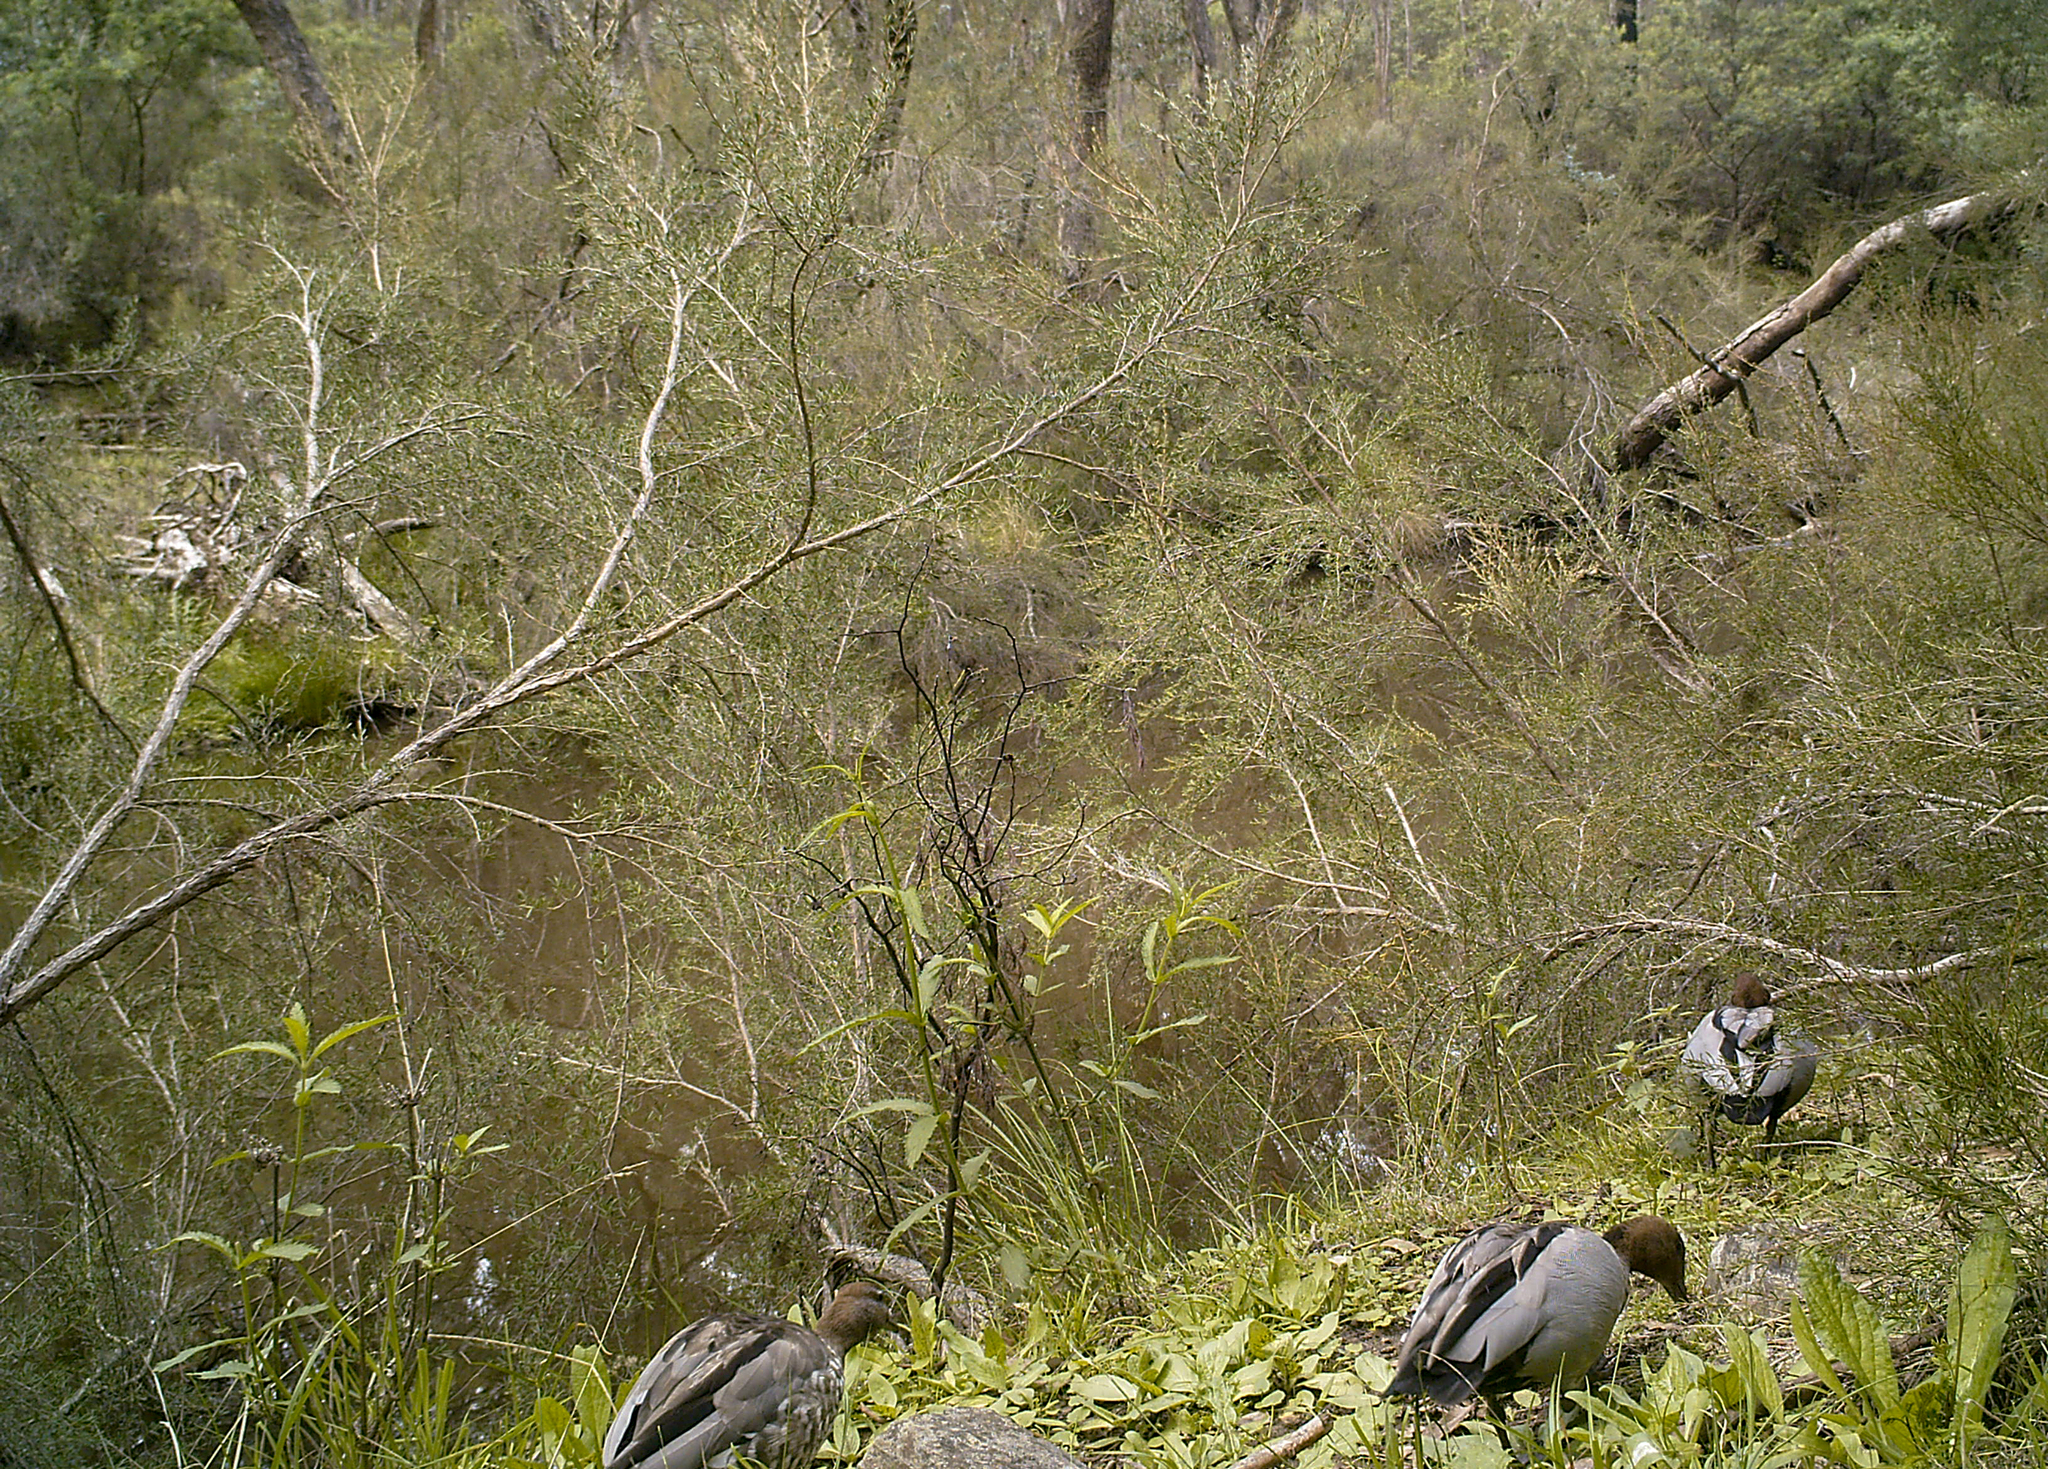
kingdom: Animalia
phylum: Chordata
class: Aves
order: Anseriformes
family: Anatidae
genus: Chenonetta
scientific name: Chenonetta jubata
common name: Maned duck
